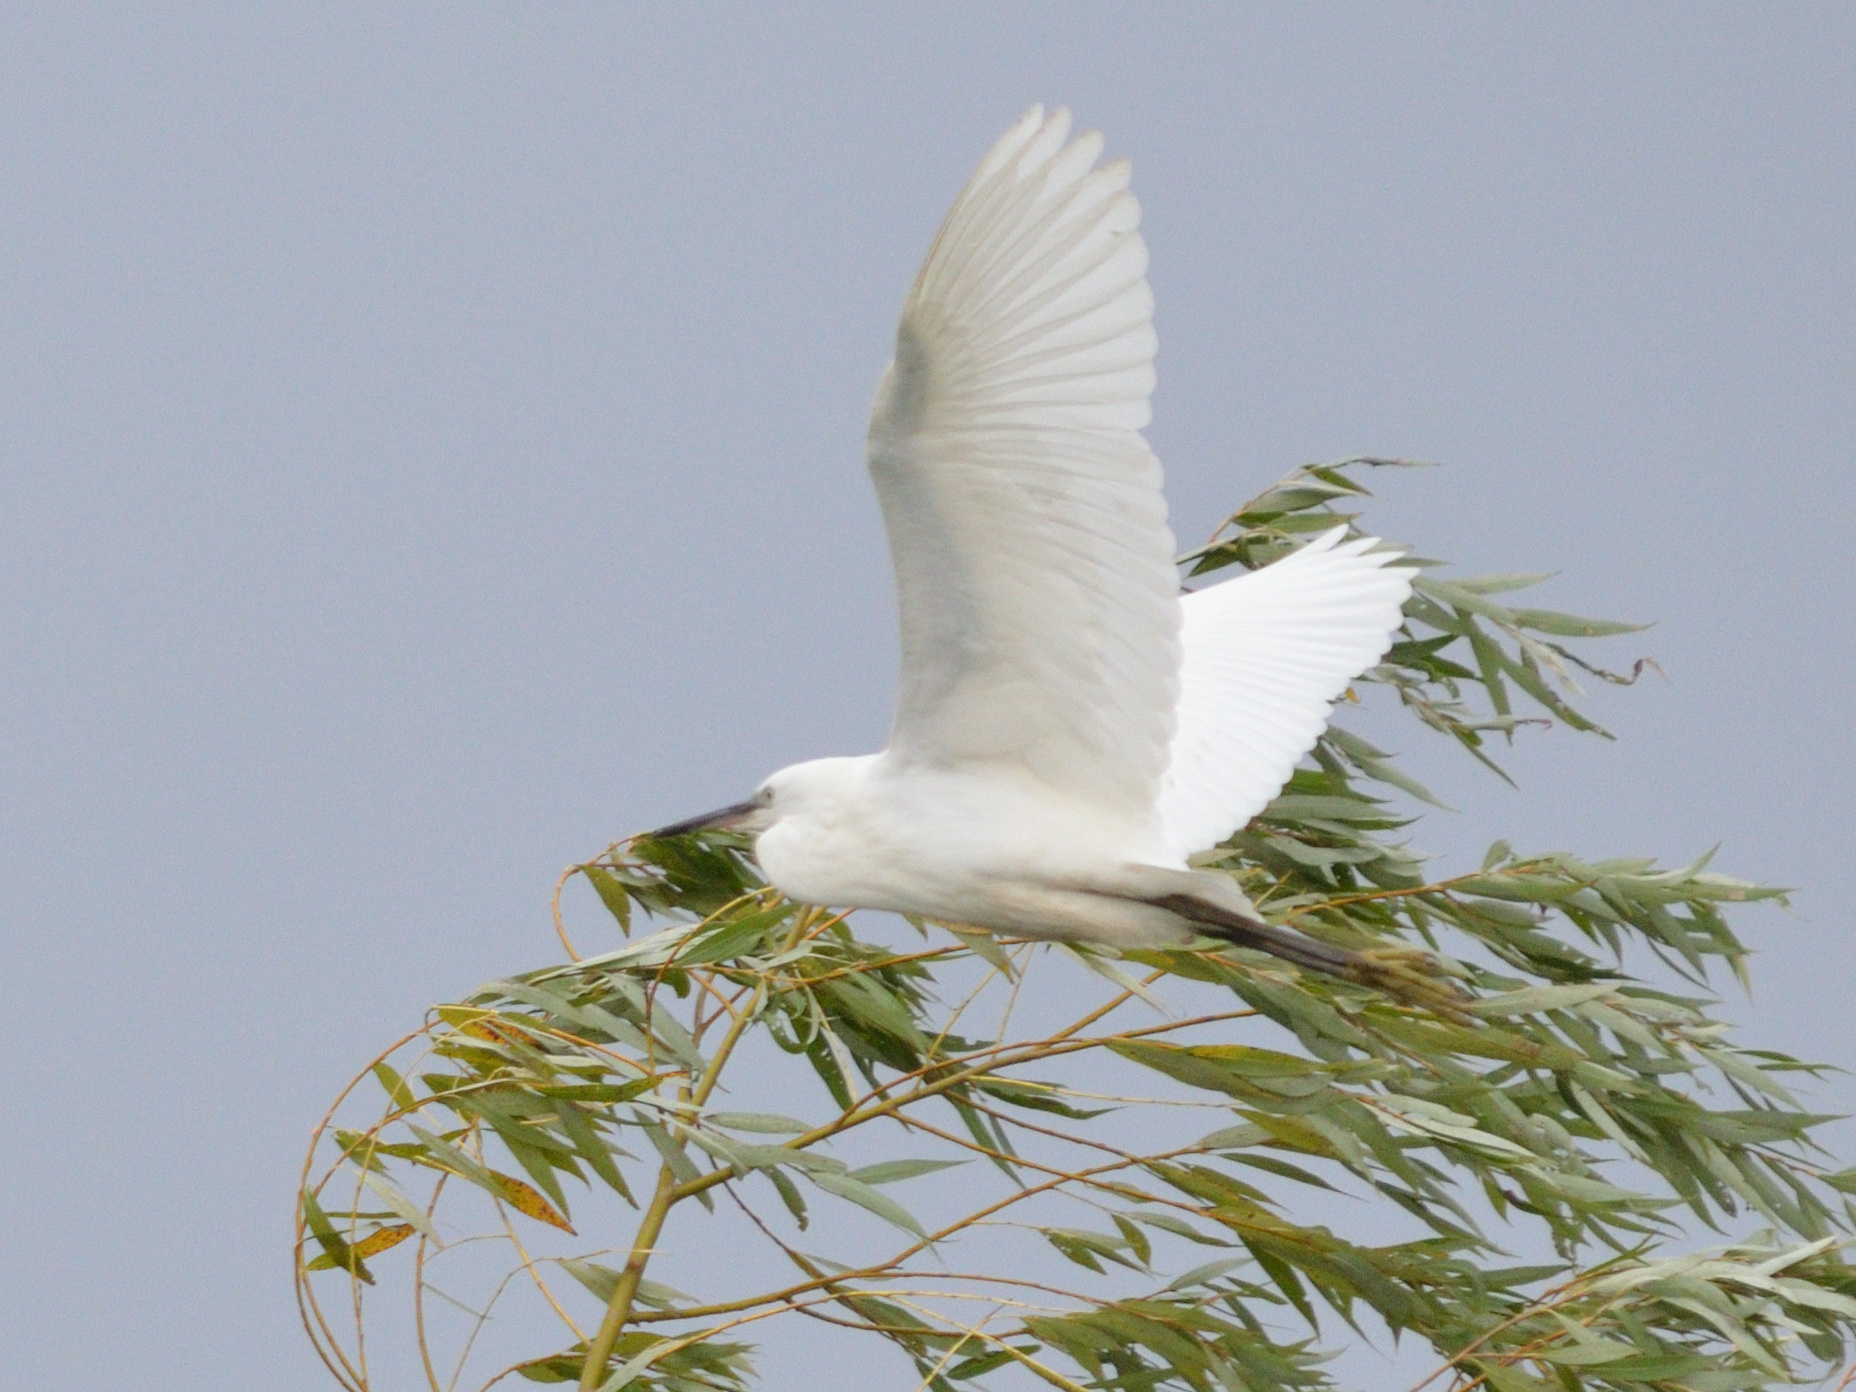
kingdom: Animalia
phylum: Chordata
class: Aves
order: Pelecaniformes
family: Ardeidae
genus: Egretta
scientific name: Egretta garzetta
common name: Little egret
